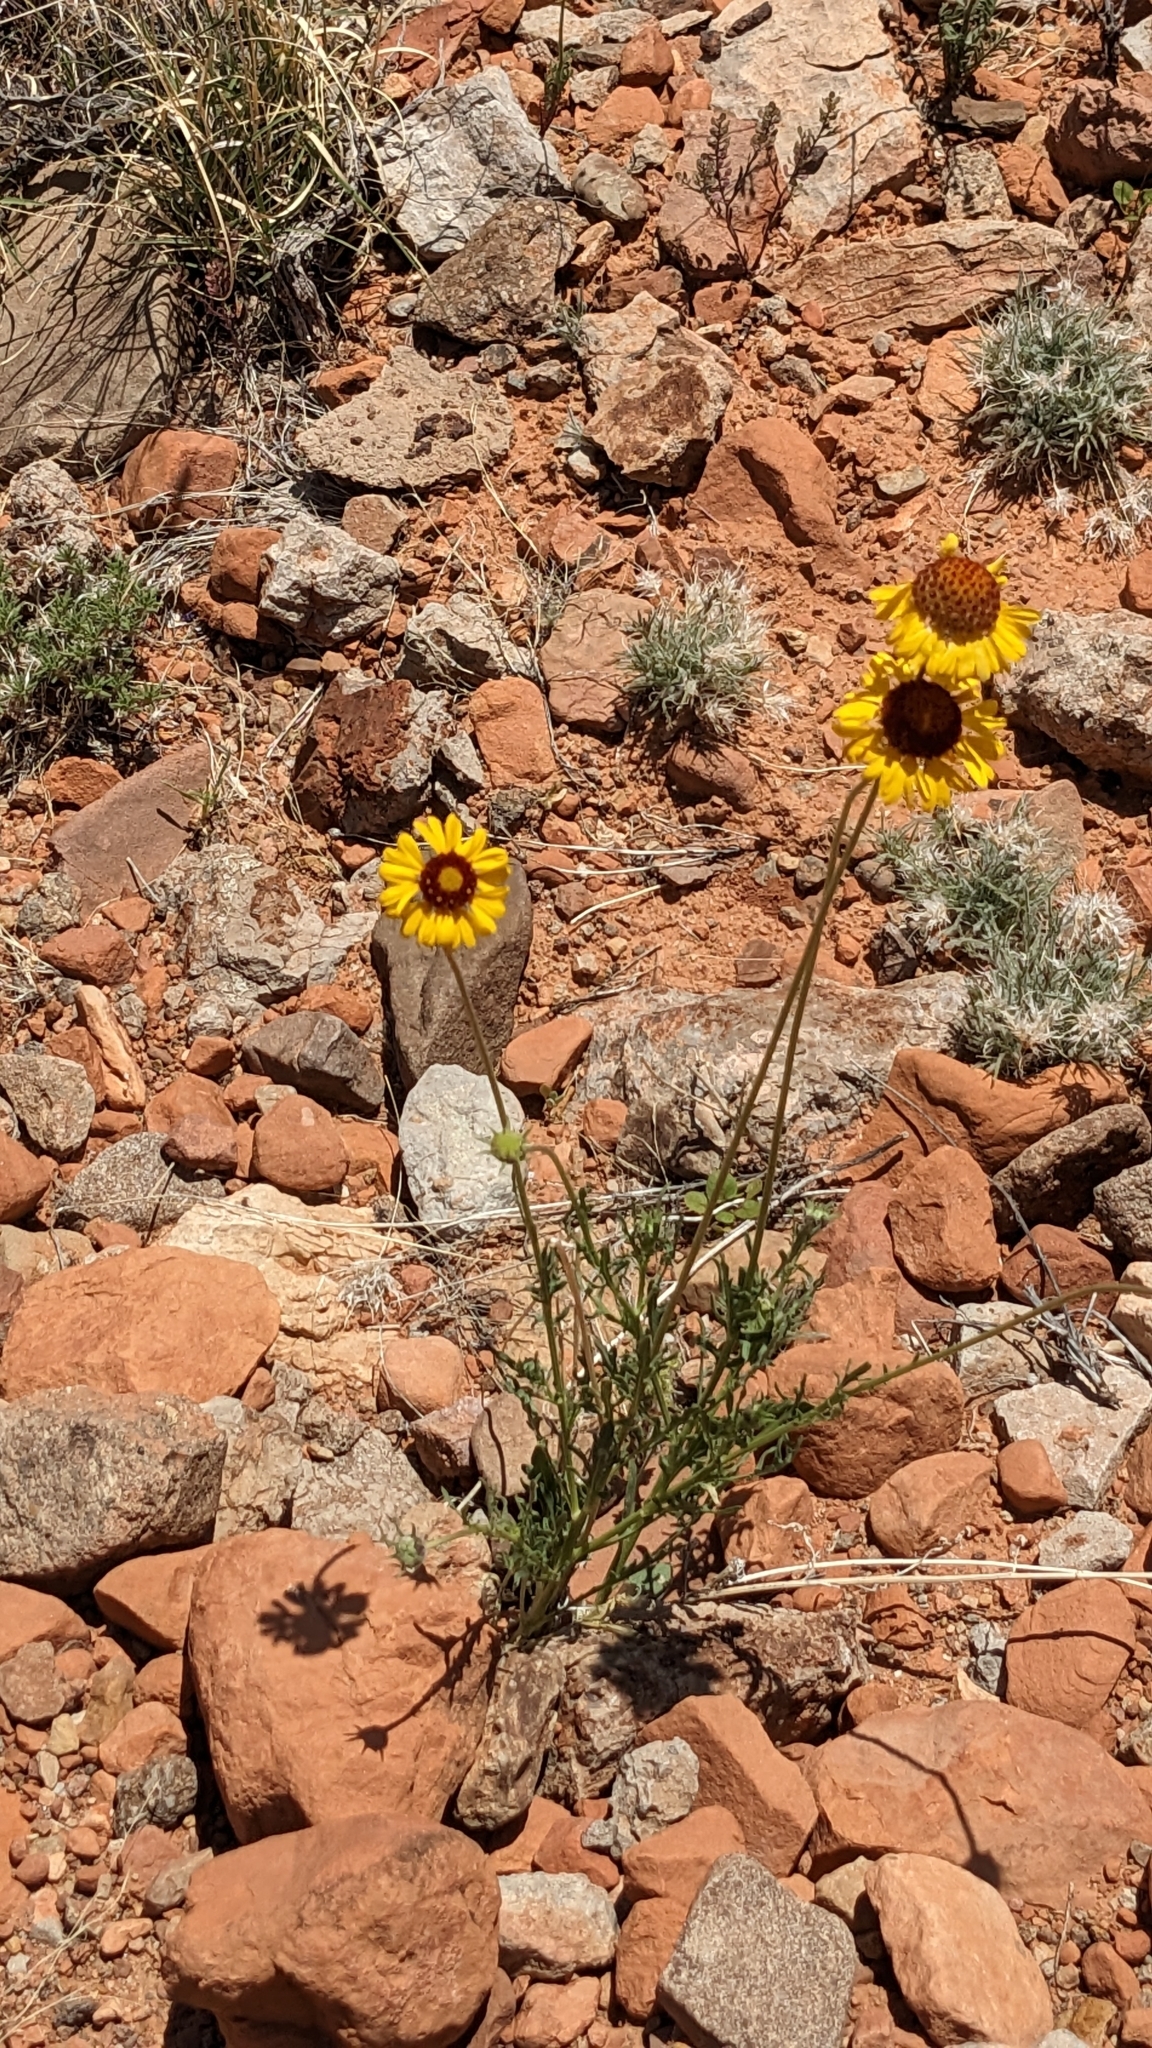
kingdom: Plantae
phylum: Tracheophyta
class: Magnoliopsida
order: Asterales
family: Asteraceae
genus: Gaillardia
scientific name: Gaillardia pinnatifida
